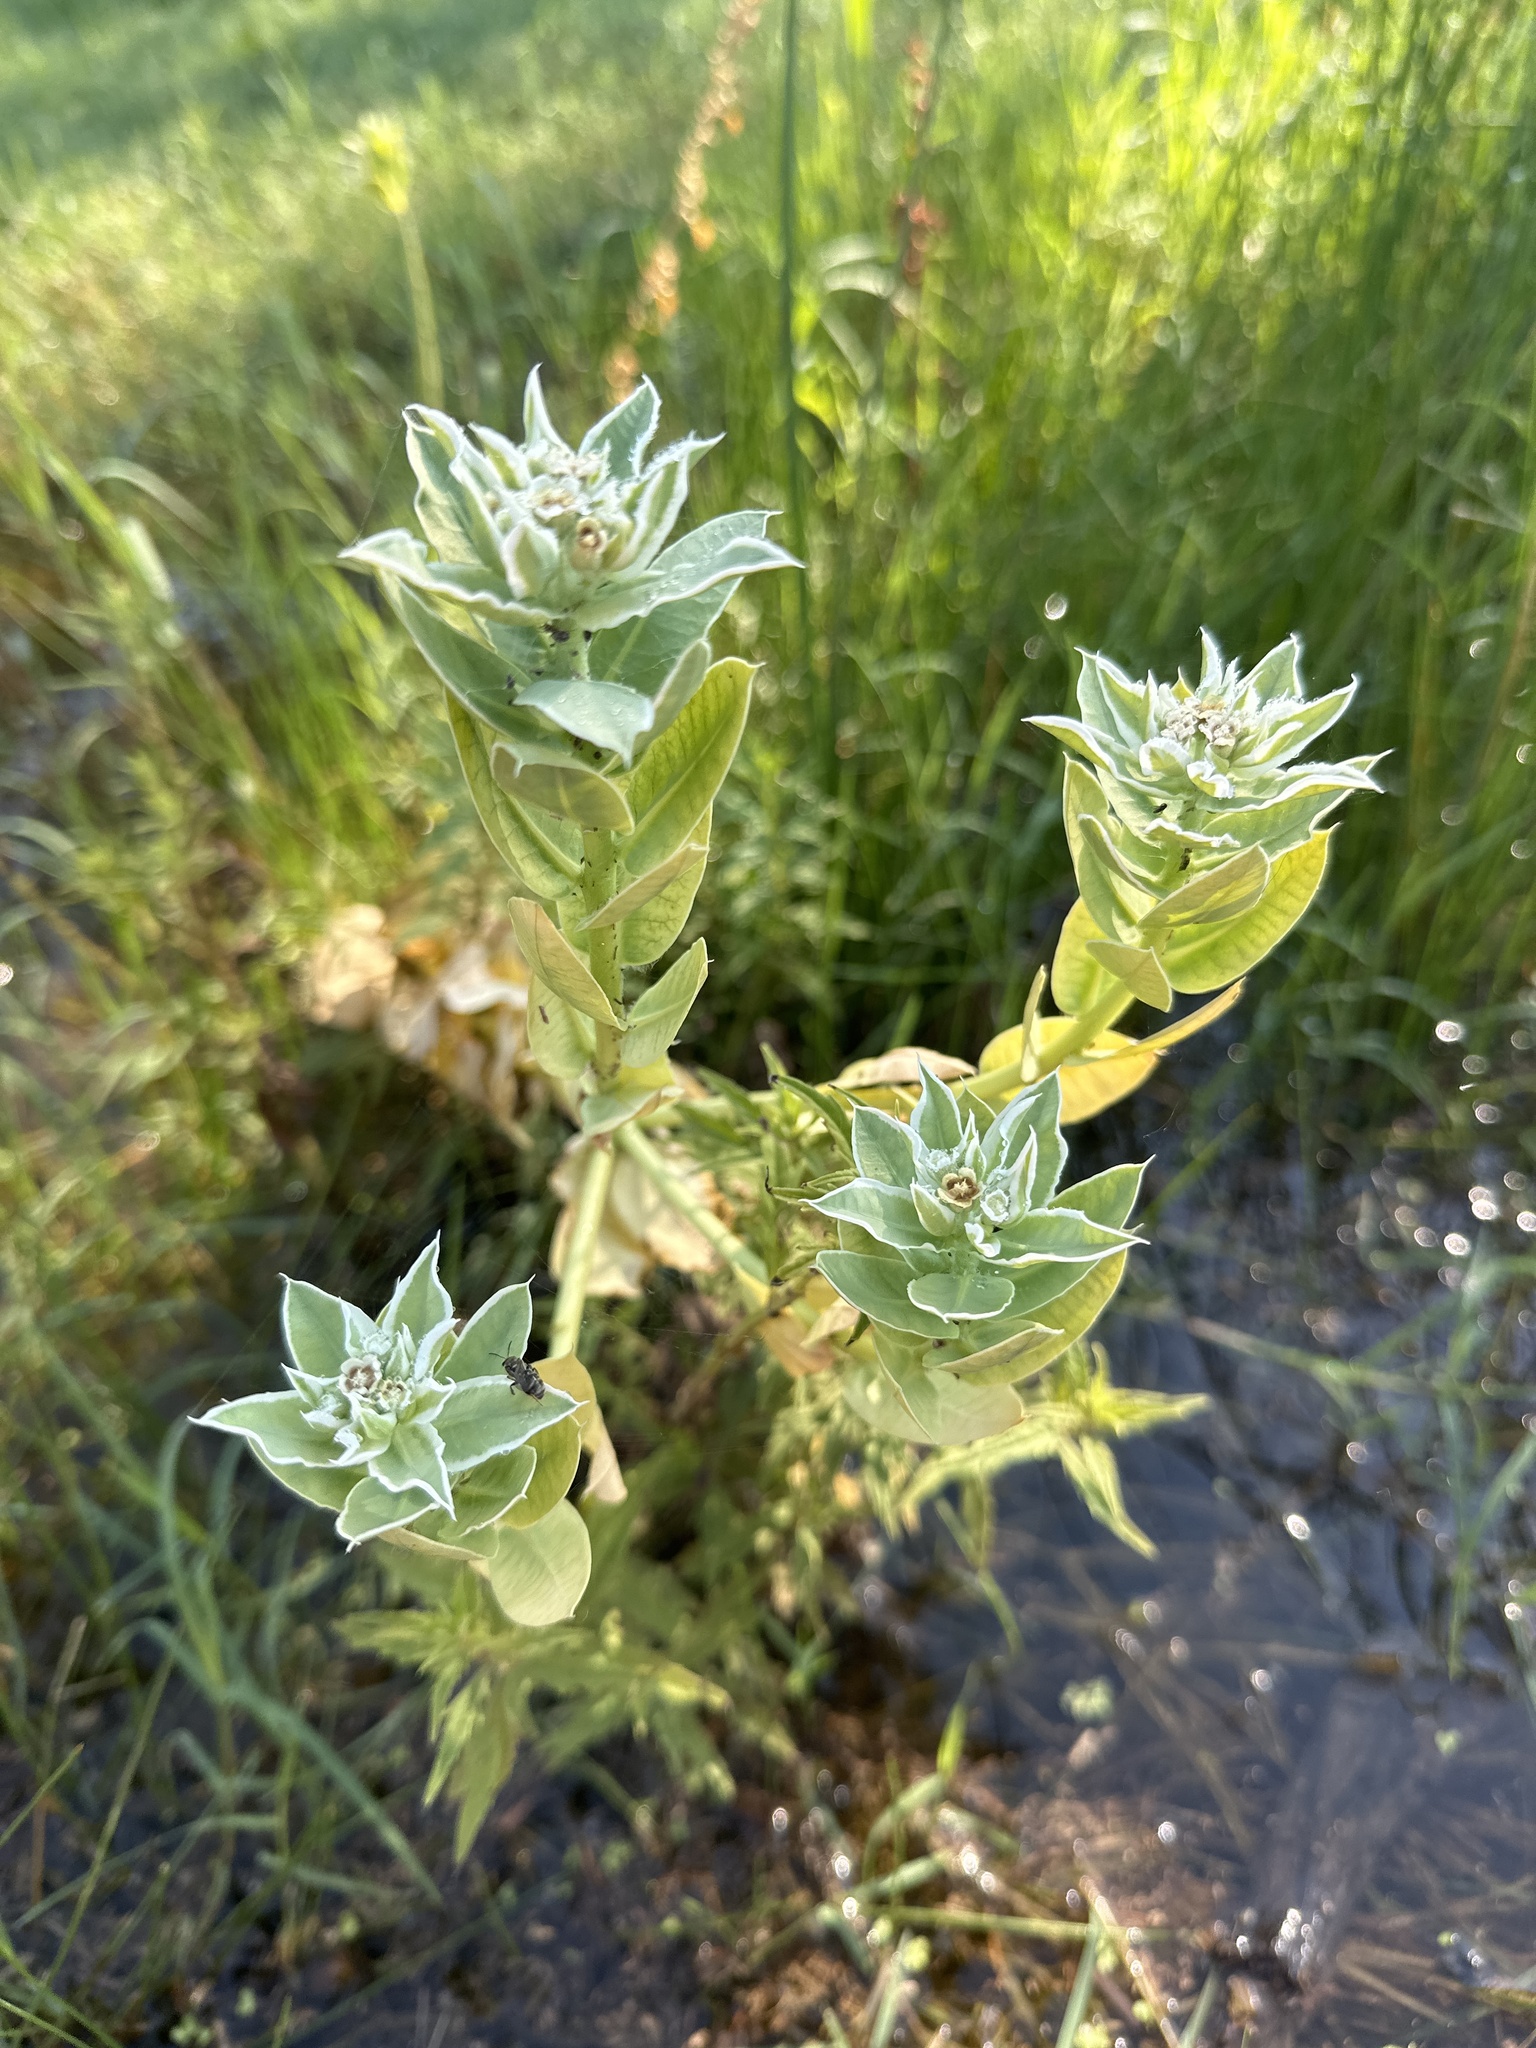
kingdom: Plantae
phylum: Tracheophyta
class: Magnoliopsida
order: Malpighiales
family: Euphorbiaceae
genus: Euphorbia
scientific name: Euphorbia marginata
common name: Ghostweed
